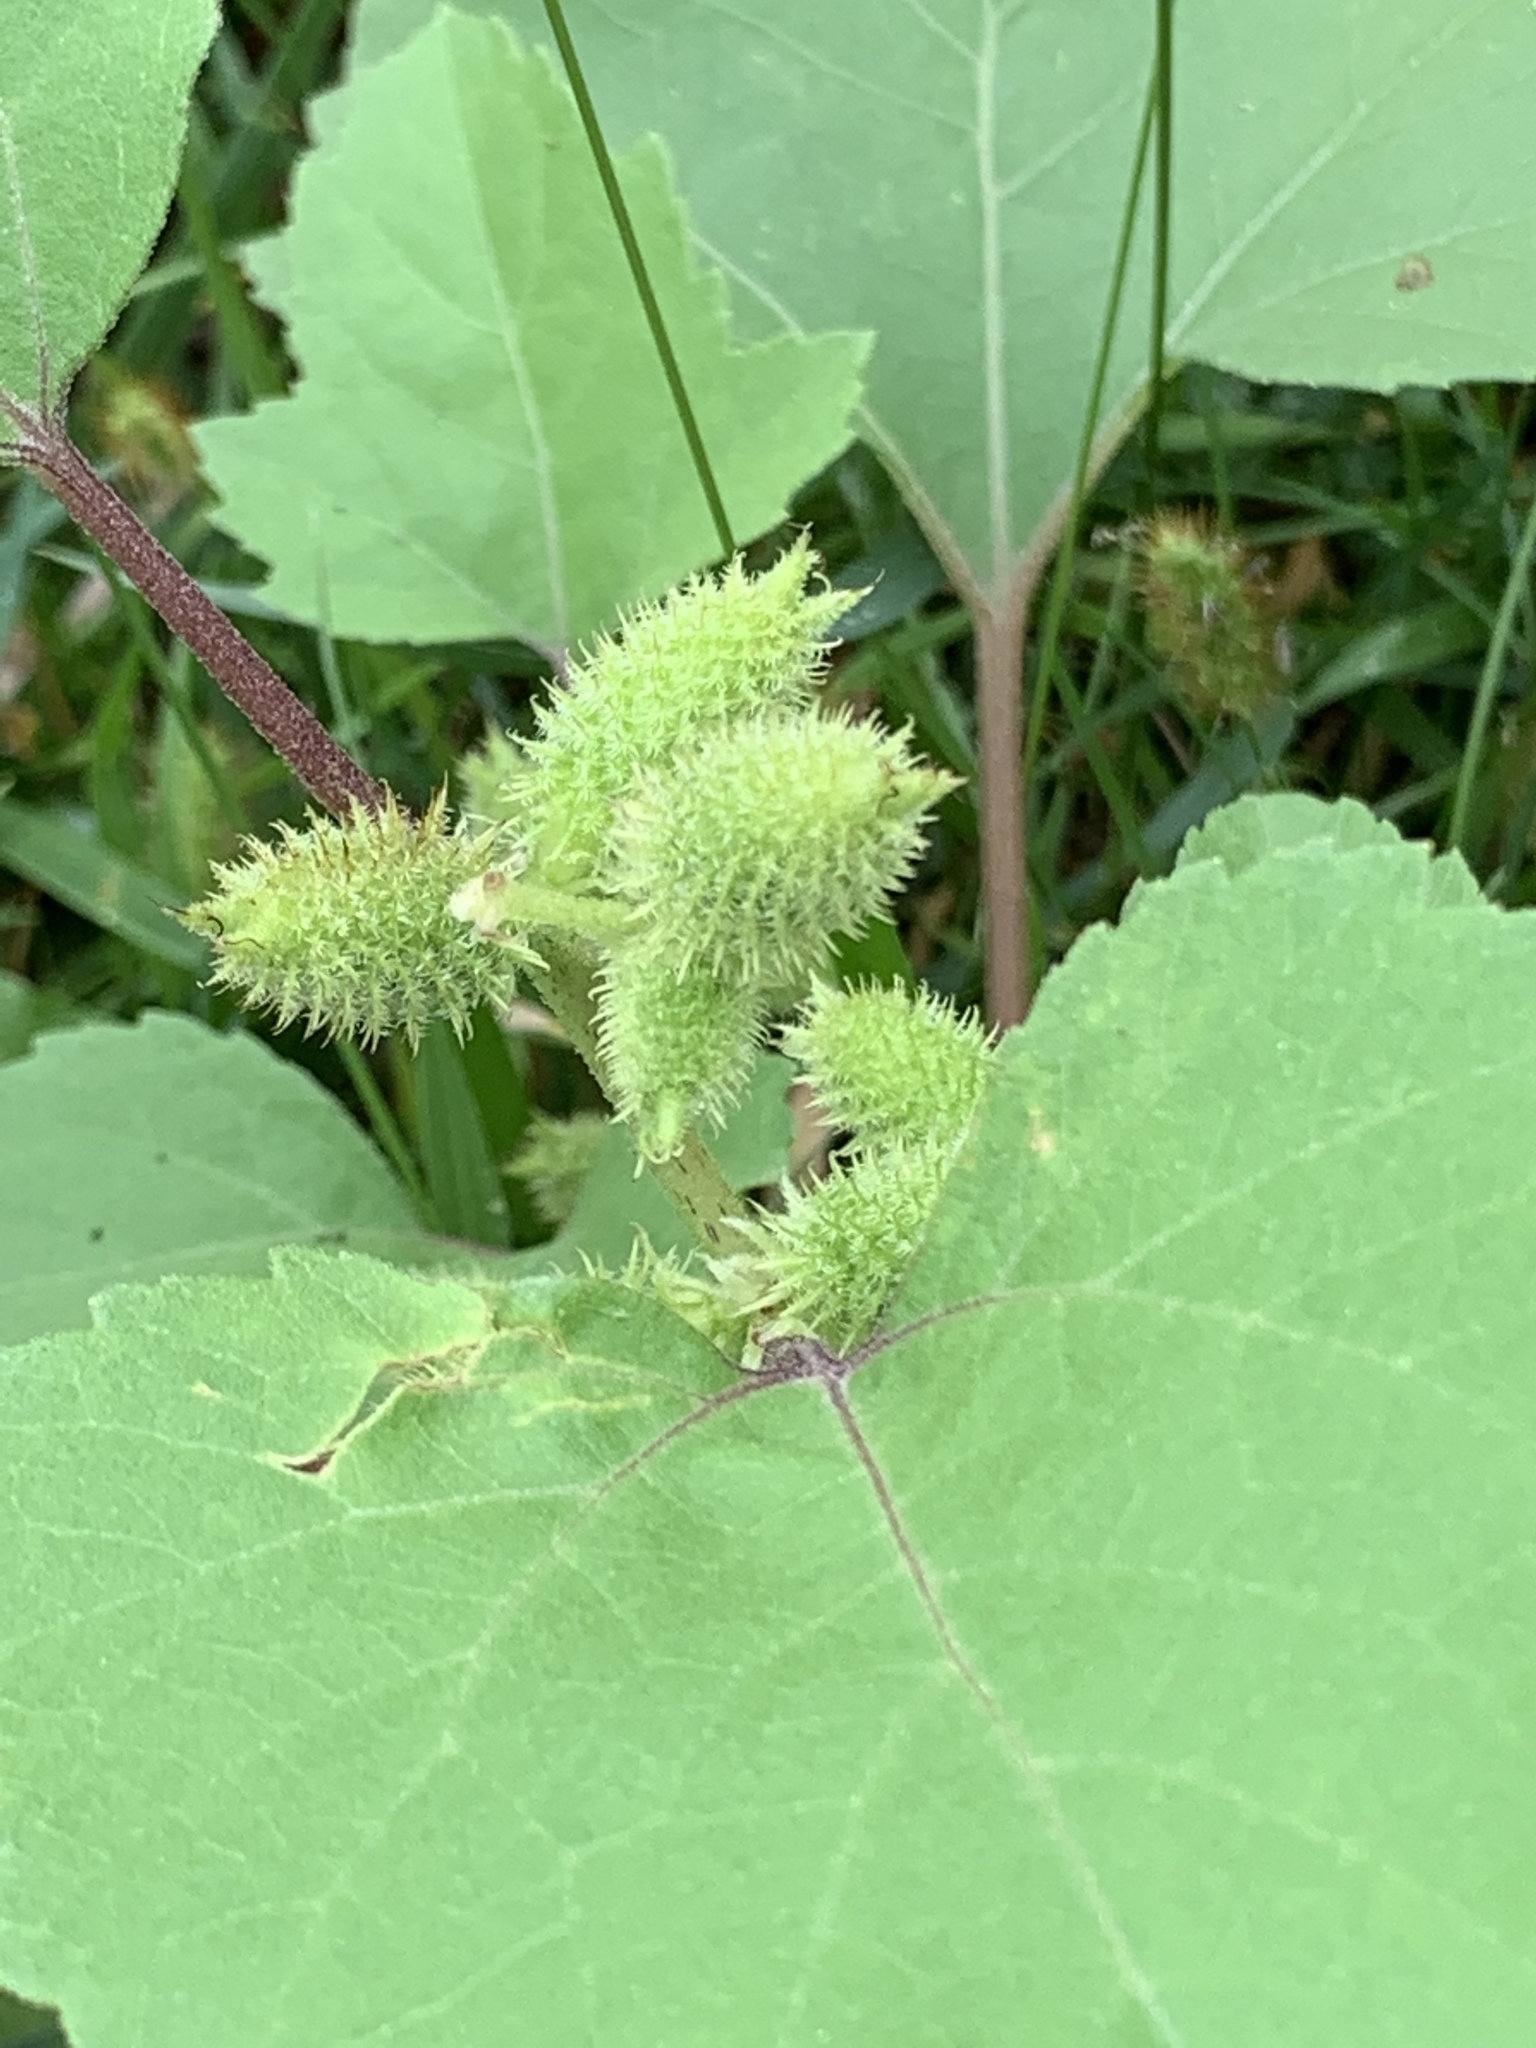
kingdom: Plantae
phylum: Tracheophyta
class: Magnoliopsida
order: Asterales
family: Asteraceae
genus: Xanthium
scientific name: Xanthium strumarium
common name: Rough cocklebur
